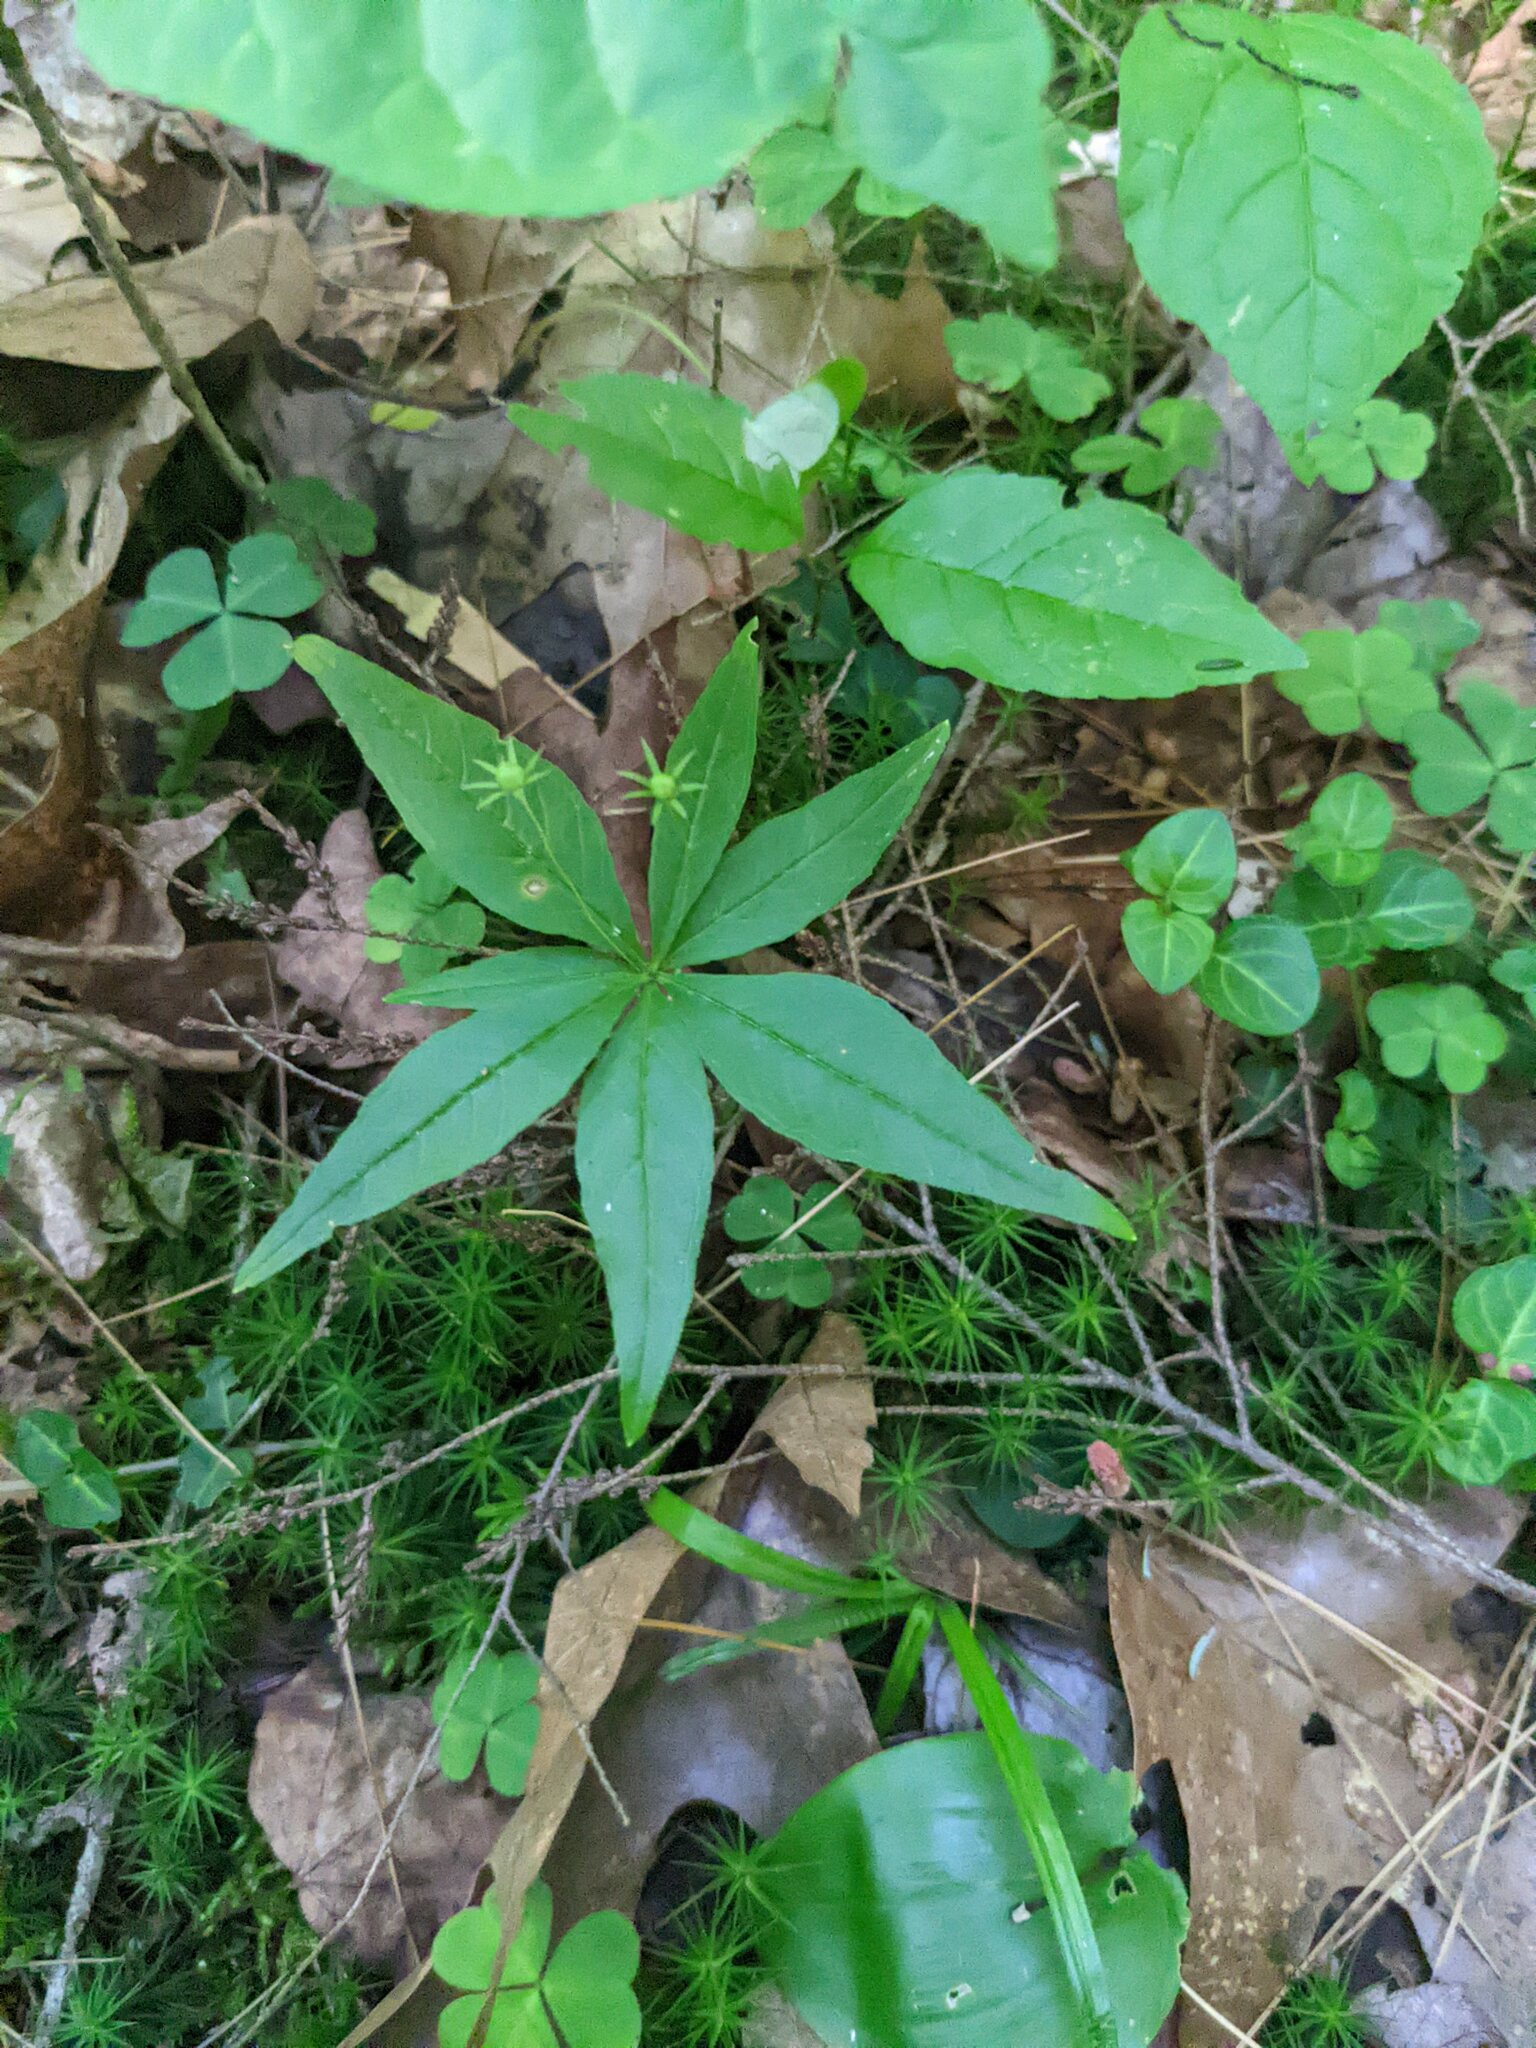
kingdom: Plantae
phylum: Tracheophyta
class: Magnoliopsida
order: Ericales
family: Primulaceae
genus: Lysimachia
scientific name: Lysimachia borealis
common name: American starflower
